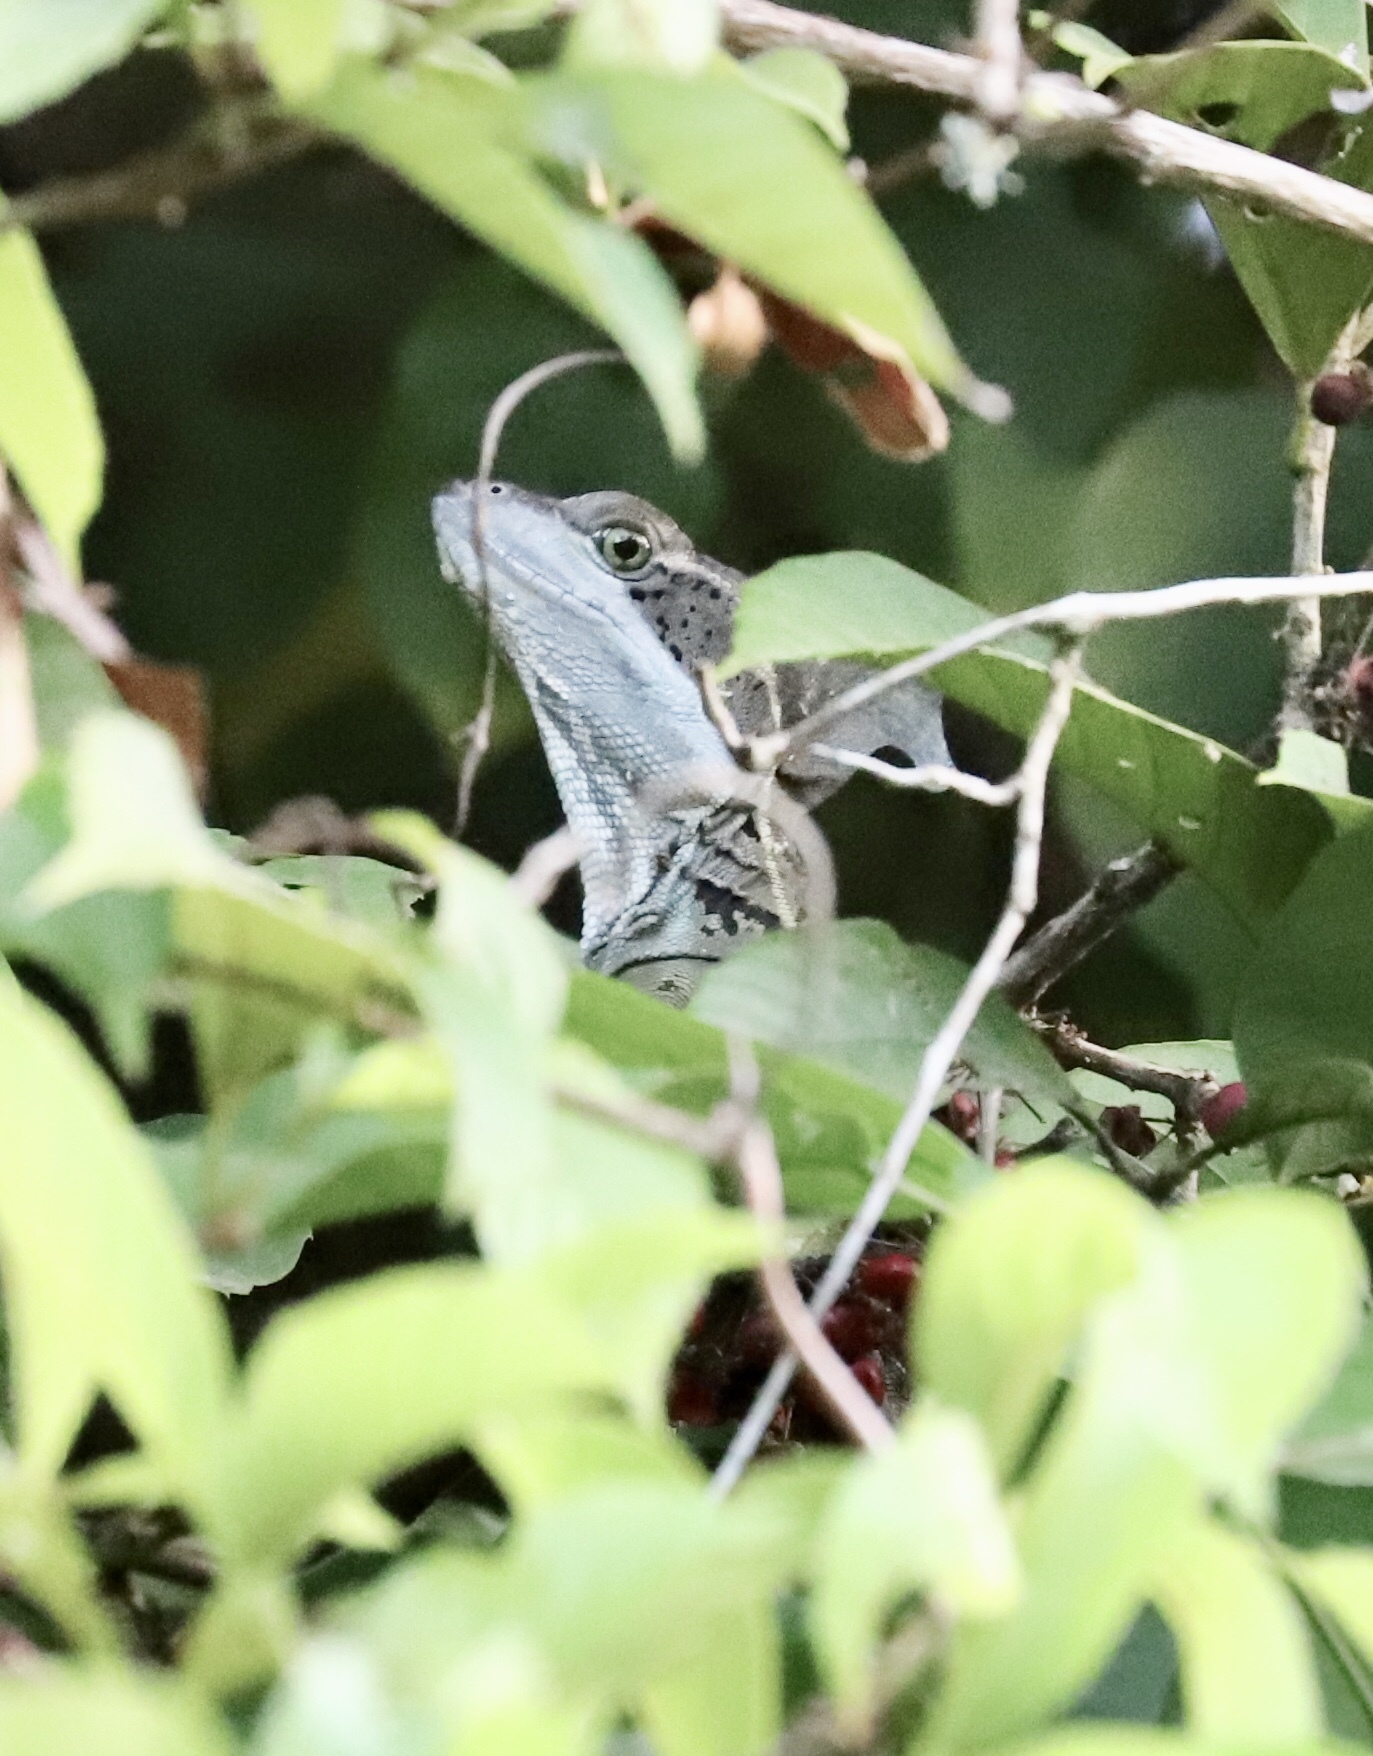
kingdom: Animalia
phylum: Chordata
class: Squamata
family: Corytophanidae
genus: Basiliscus
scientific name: Basiliscus basiliscus
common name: Common basilisk
